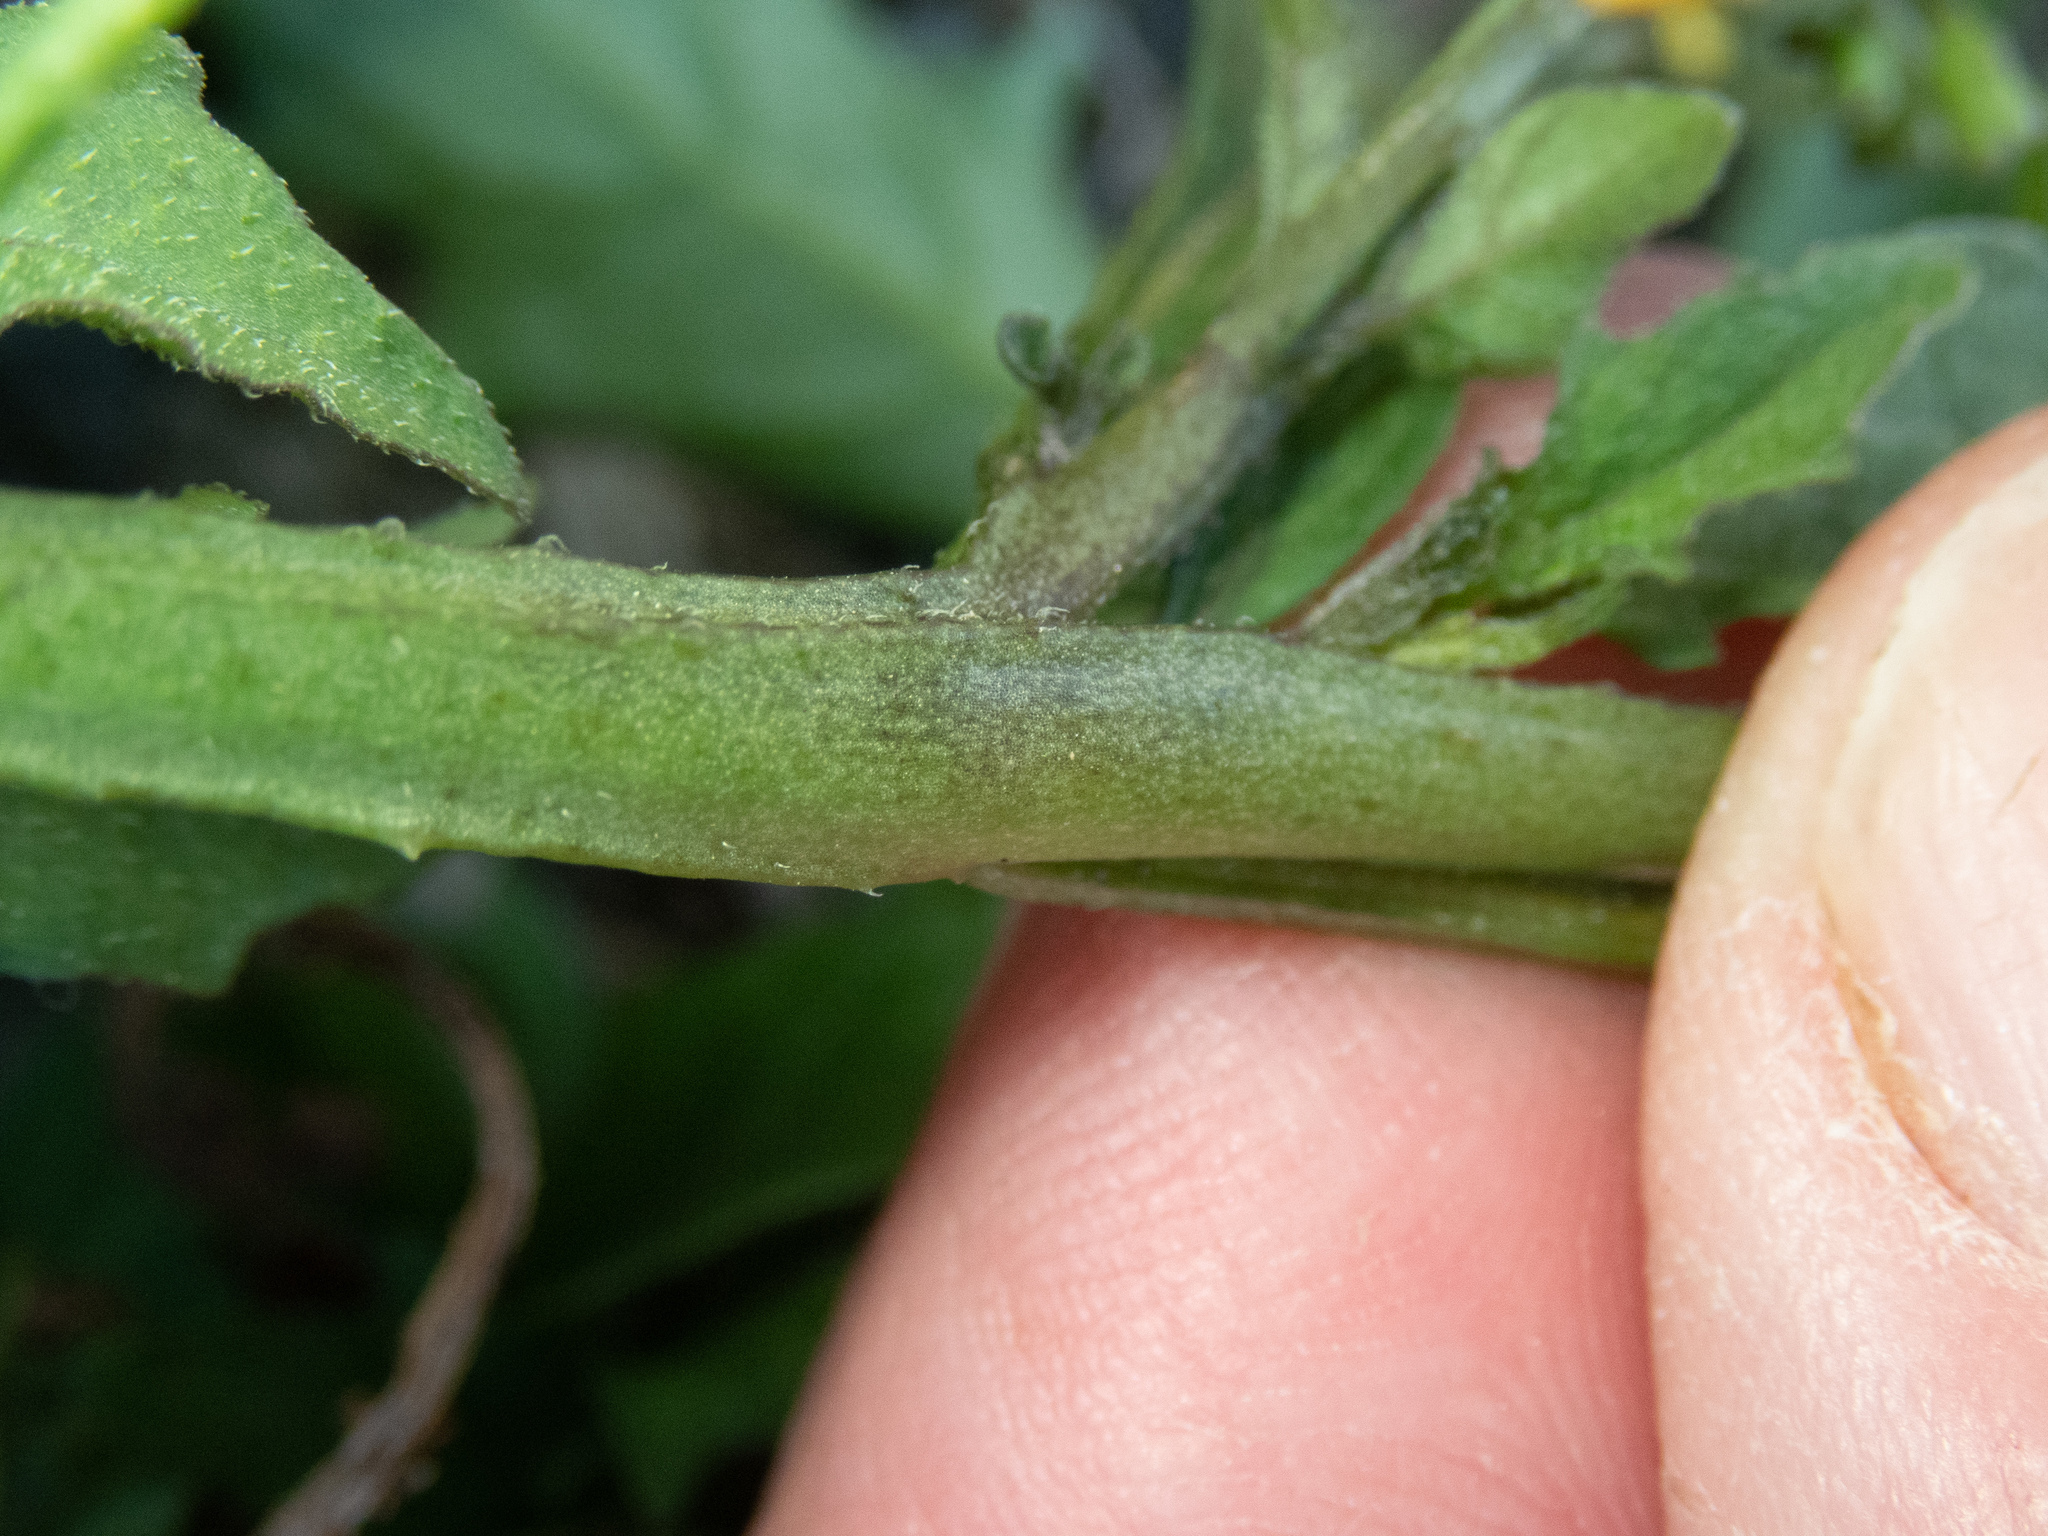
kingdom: Plantae
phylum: Tracheophyta
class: Magnoliopsida
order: Solanales
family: Solanaceae
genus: Solanum
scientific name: Solanum americanum
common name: American black nightshade
